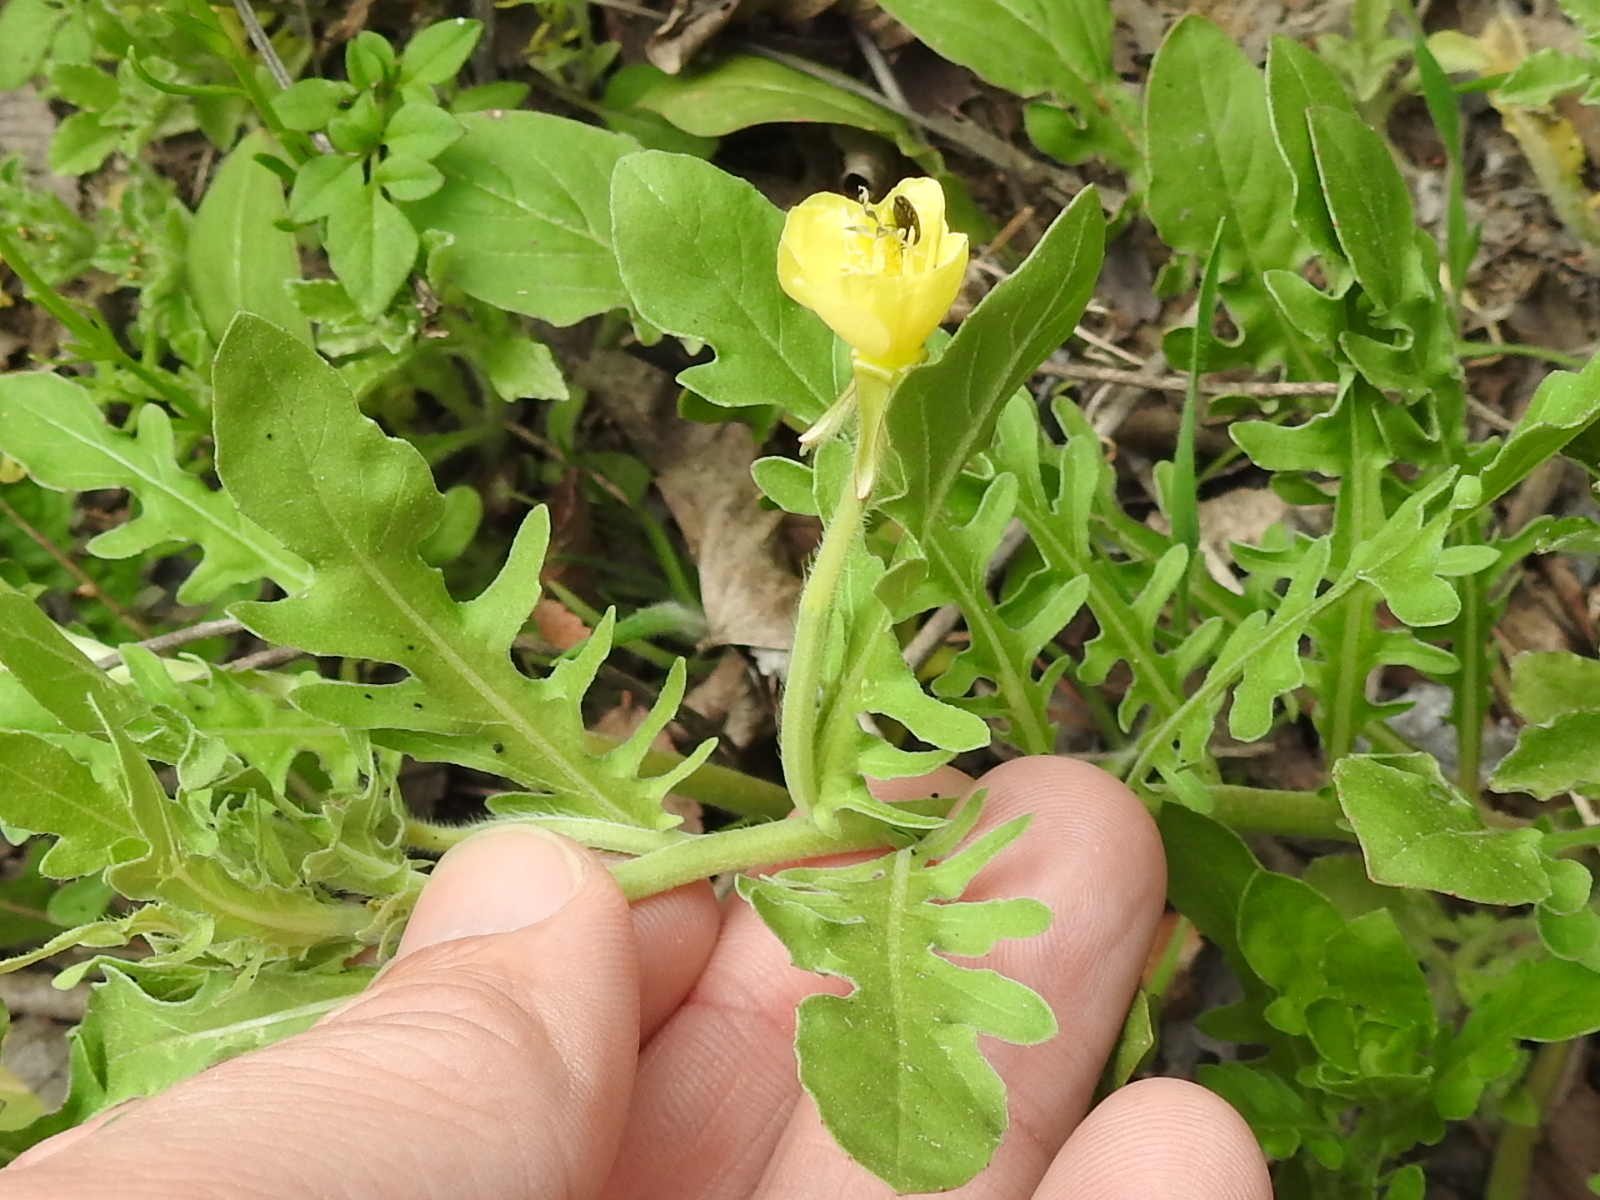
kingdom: Plantae
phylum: Tracheophyta
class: Magnoliopsida
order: Myrtales
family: Onagraceae
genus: Oenothera
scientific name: Oenothera laciniata
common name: Cut-leaved evening-primrose
